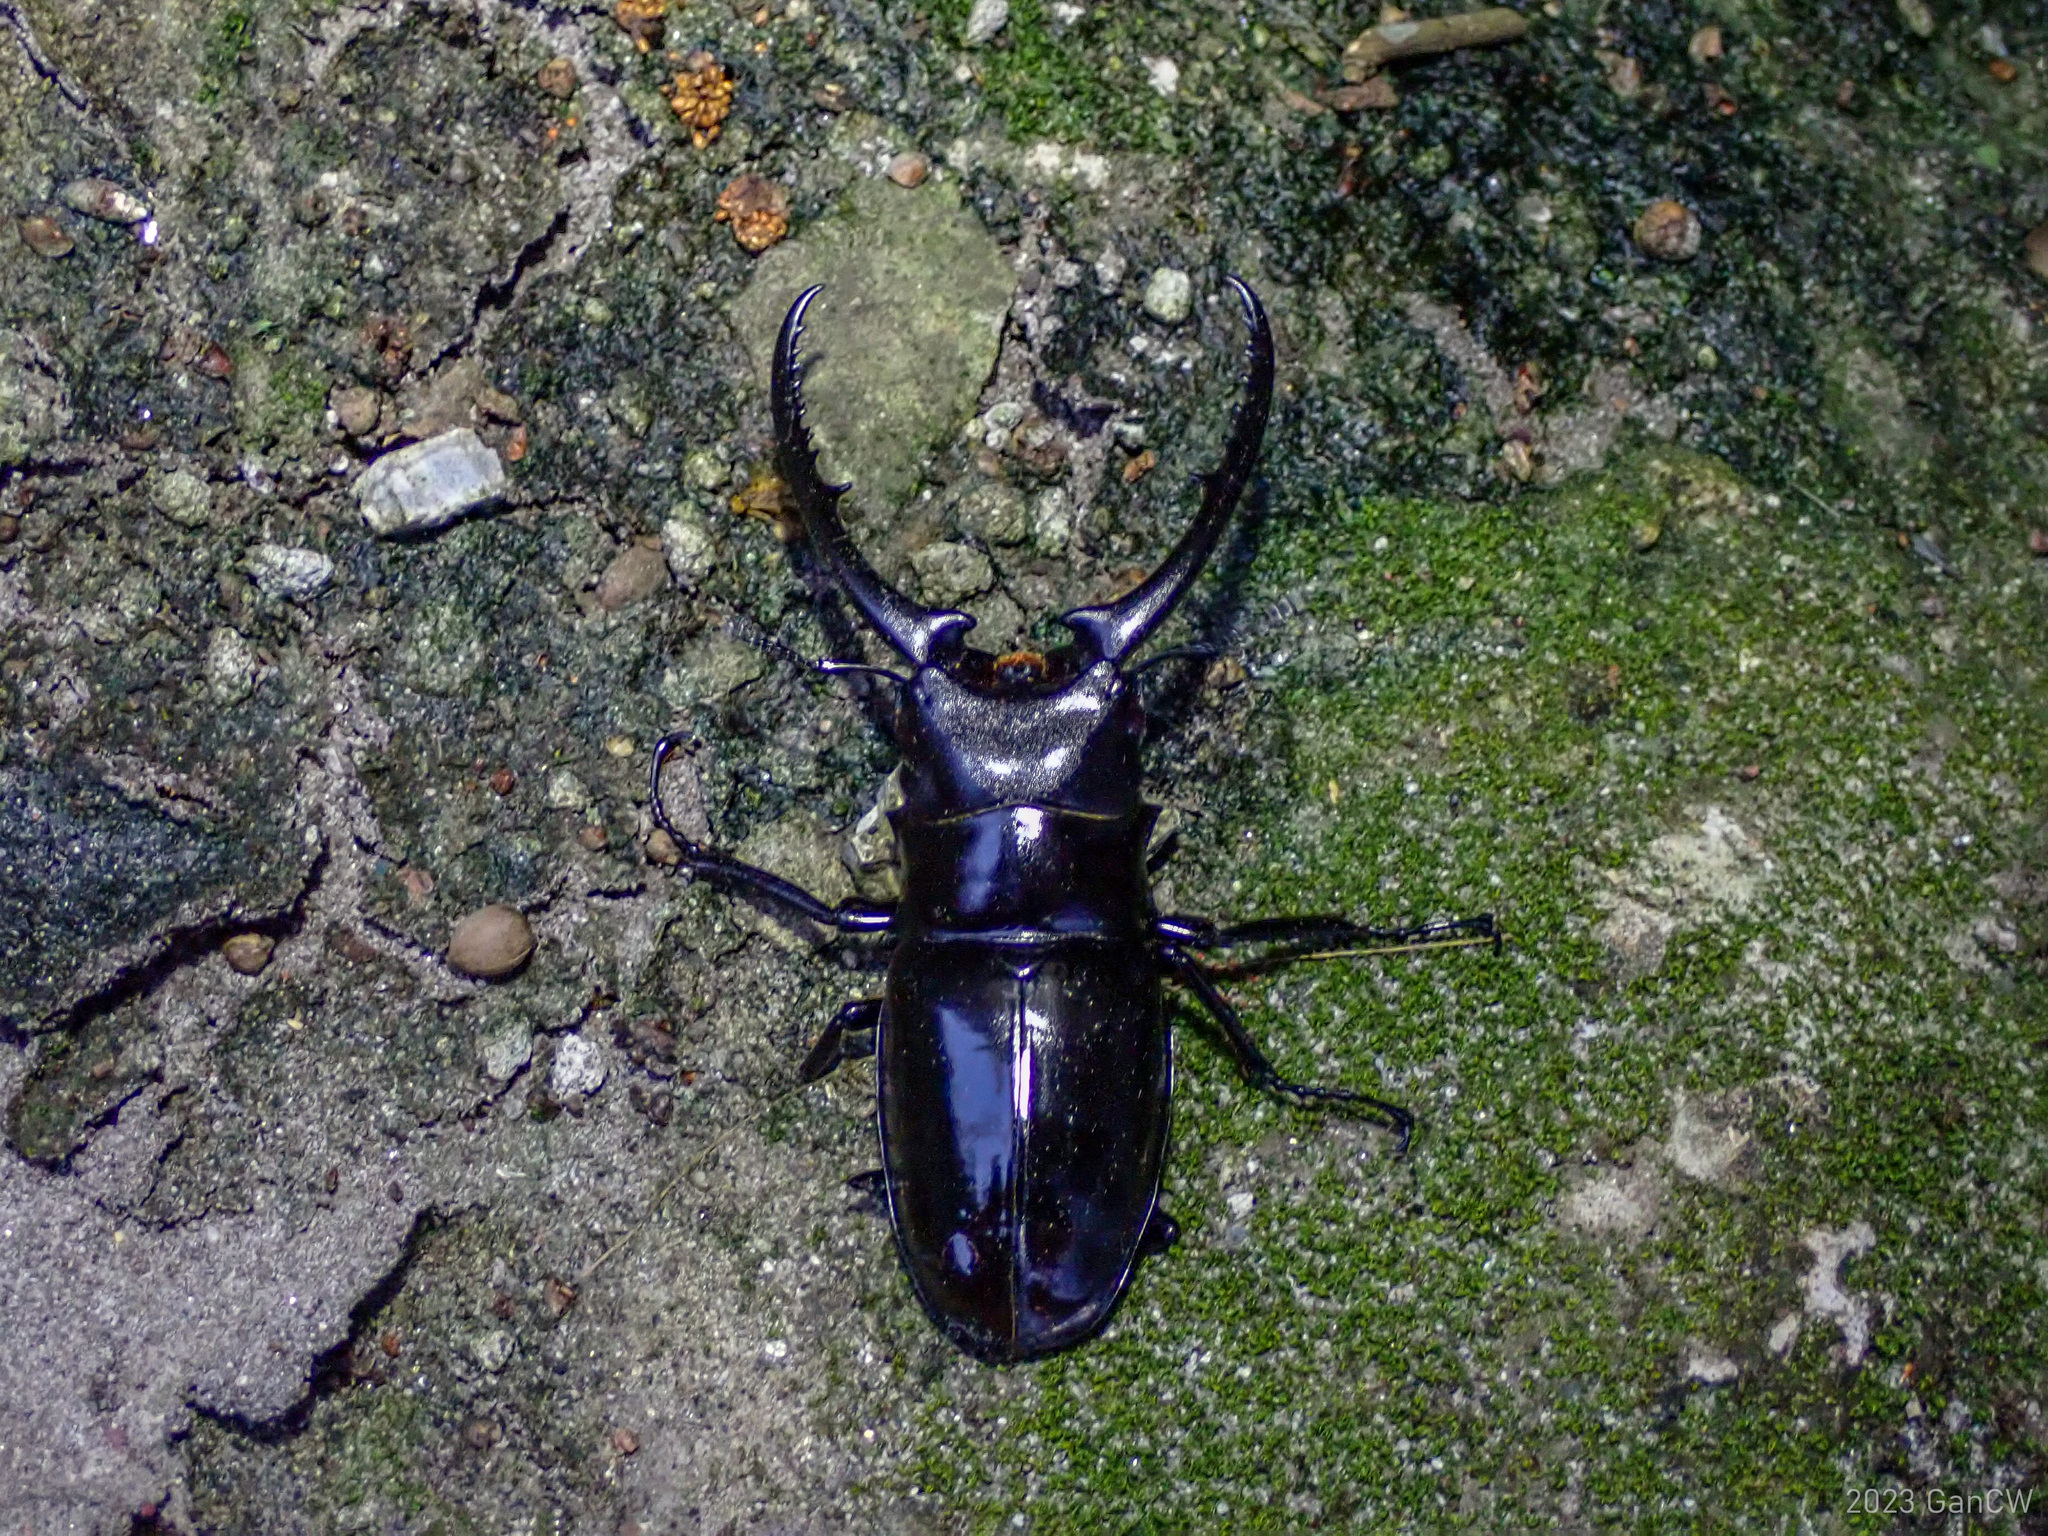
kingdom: Animalia
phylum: Arthropoda
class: Insecta
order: Coleoptera
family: Lucanidae
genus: Prosopocoilus
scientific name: Prosopocoilus confucius
